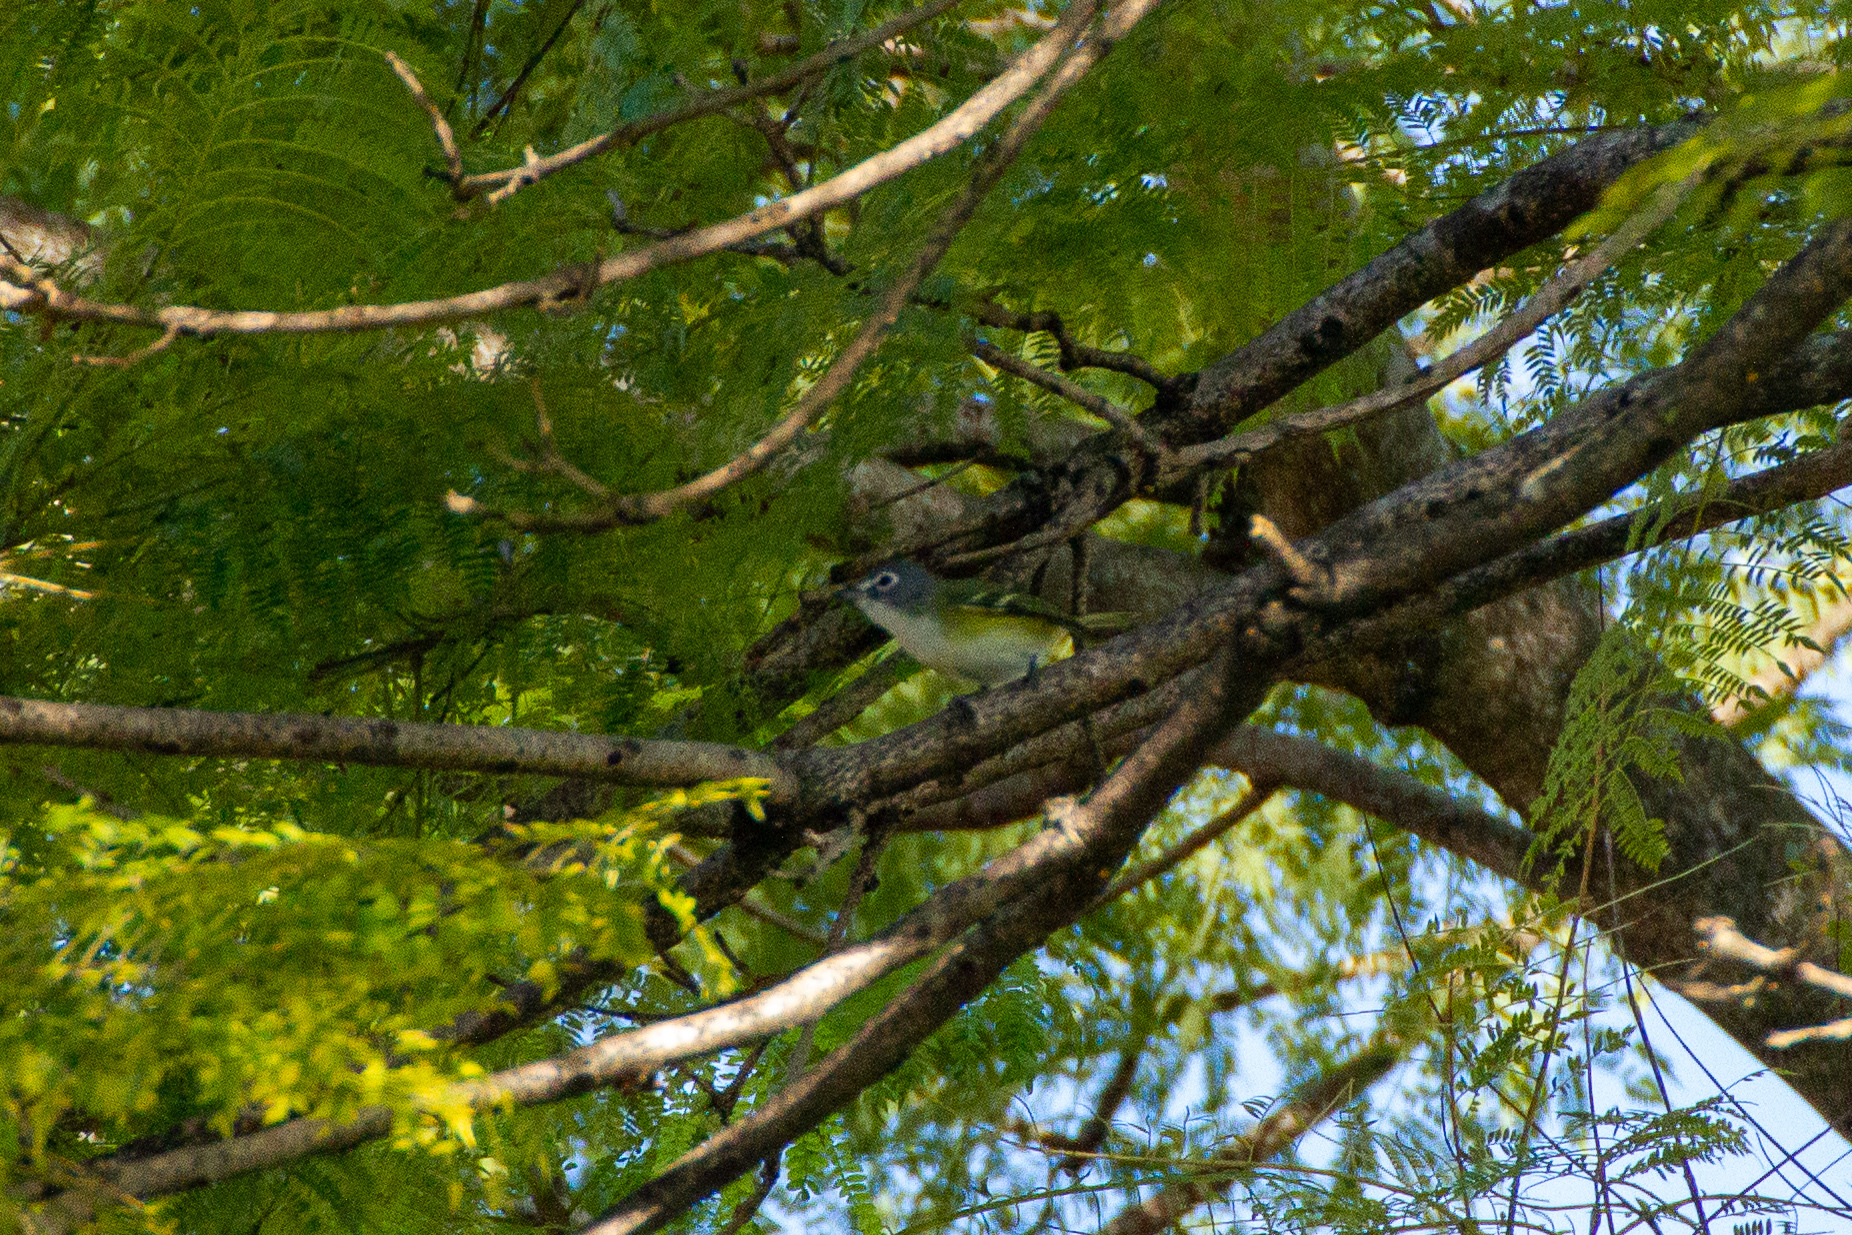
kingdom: Animalia
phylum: Chordata
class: Aves
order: Passeriformes
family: Vireonidae
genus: Vireo
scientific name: Vireo solitarius
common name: Blue-headed vireo
